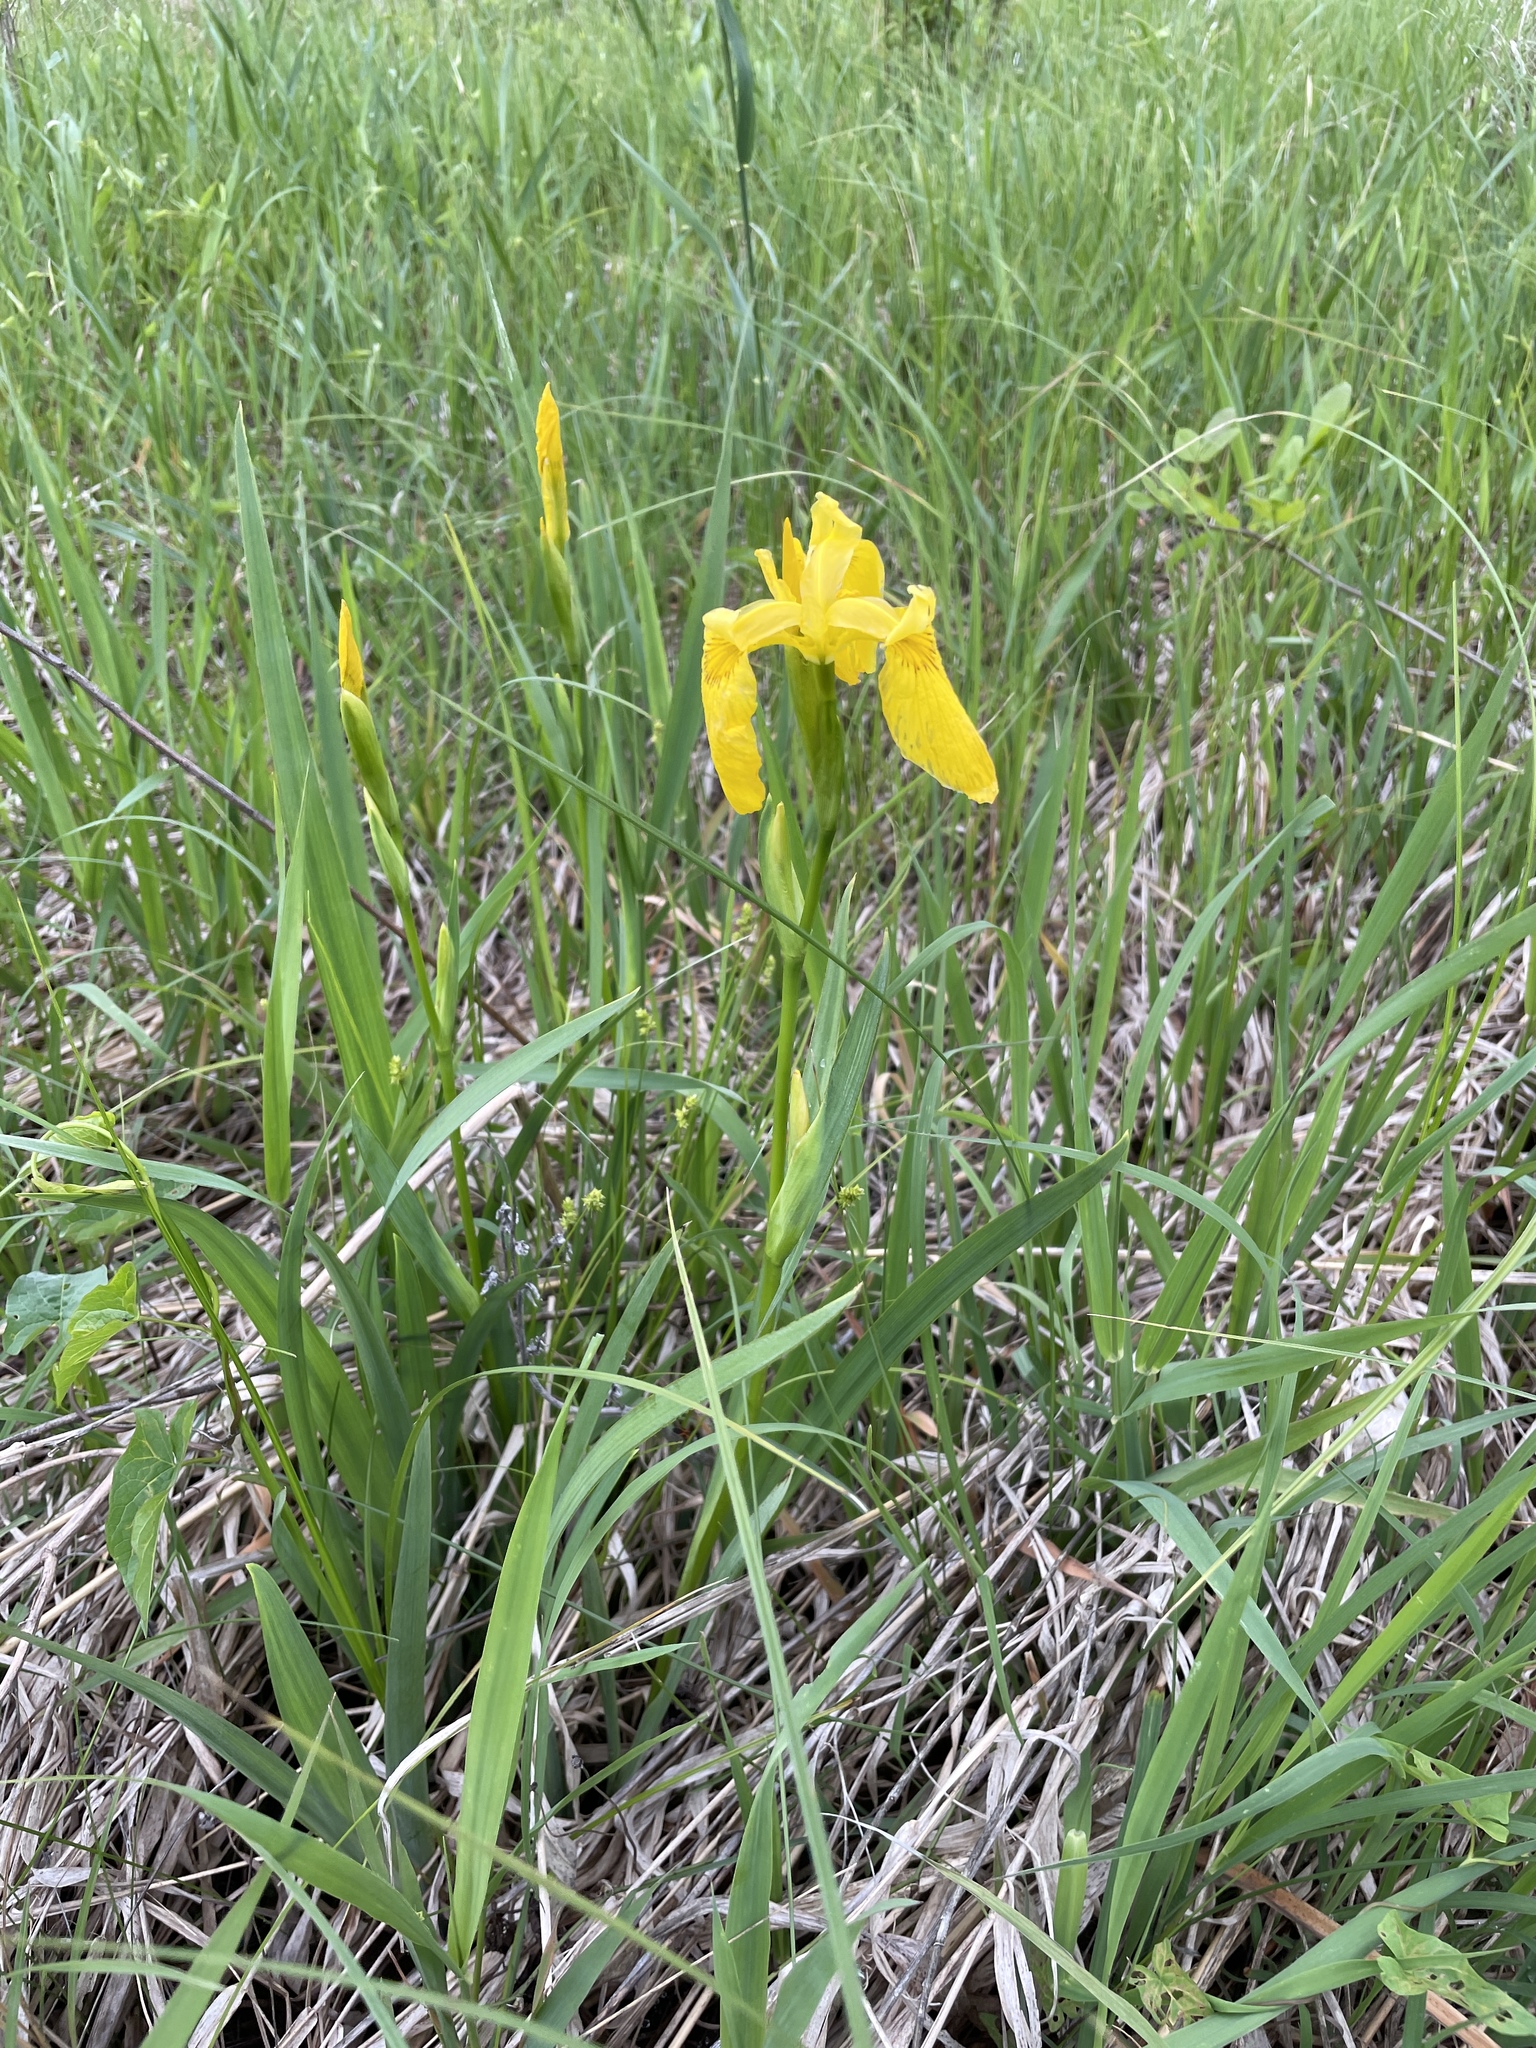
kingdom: Plantae
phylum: Tracheophyta
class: Liliopsida
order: Asparagales
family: Iridaceae
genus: Iris
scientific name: Iris pseudacorus
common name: Yellow flag
